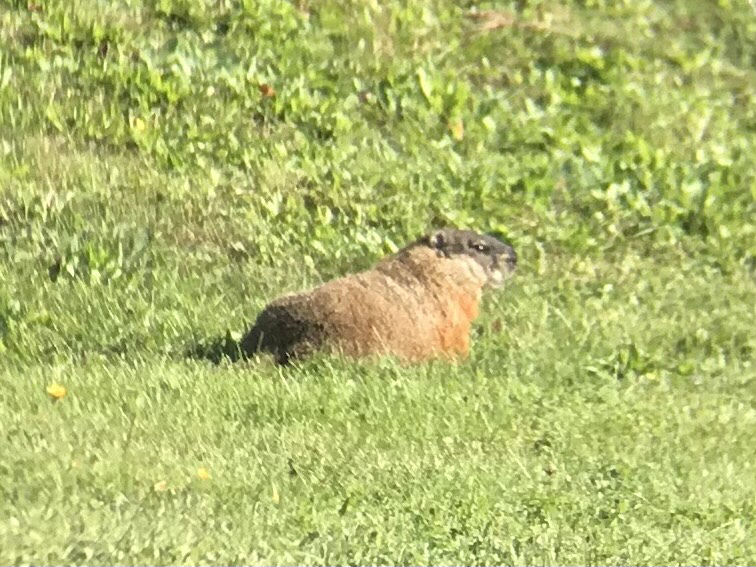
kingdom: Animalia
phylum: Chordata
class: Mammalia
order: Rodentia
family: Sciuridae
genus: Marmota
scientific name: Marmota monax
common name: Groundhog
